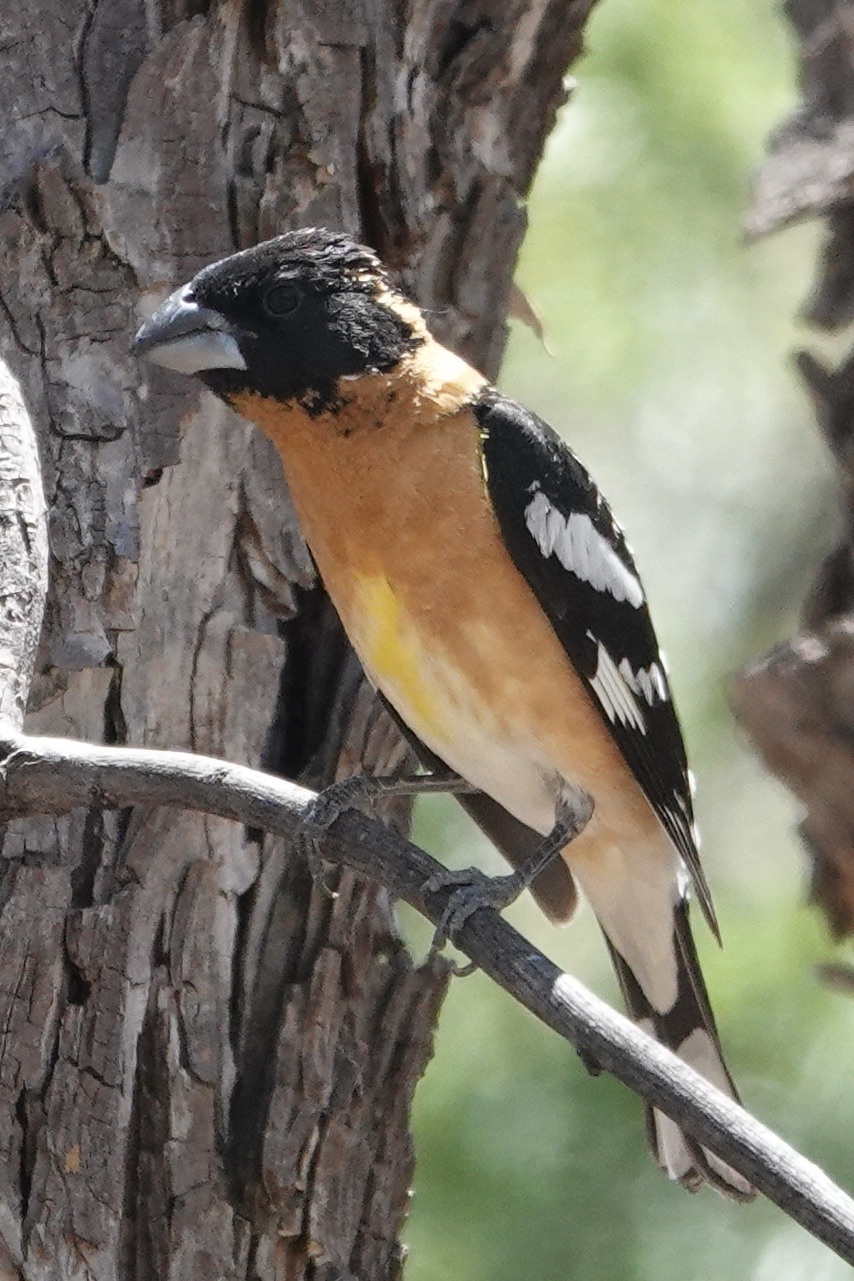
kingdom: Animalia
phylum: Chordata
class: Aves
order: Passeriformes
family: Cardinalidae
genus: Pheucticus
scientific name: Pheucticus melanocephalus
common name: Black-headed grosbeak
